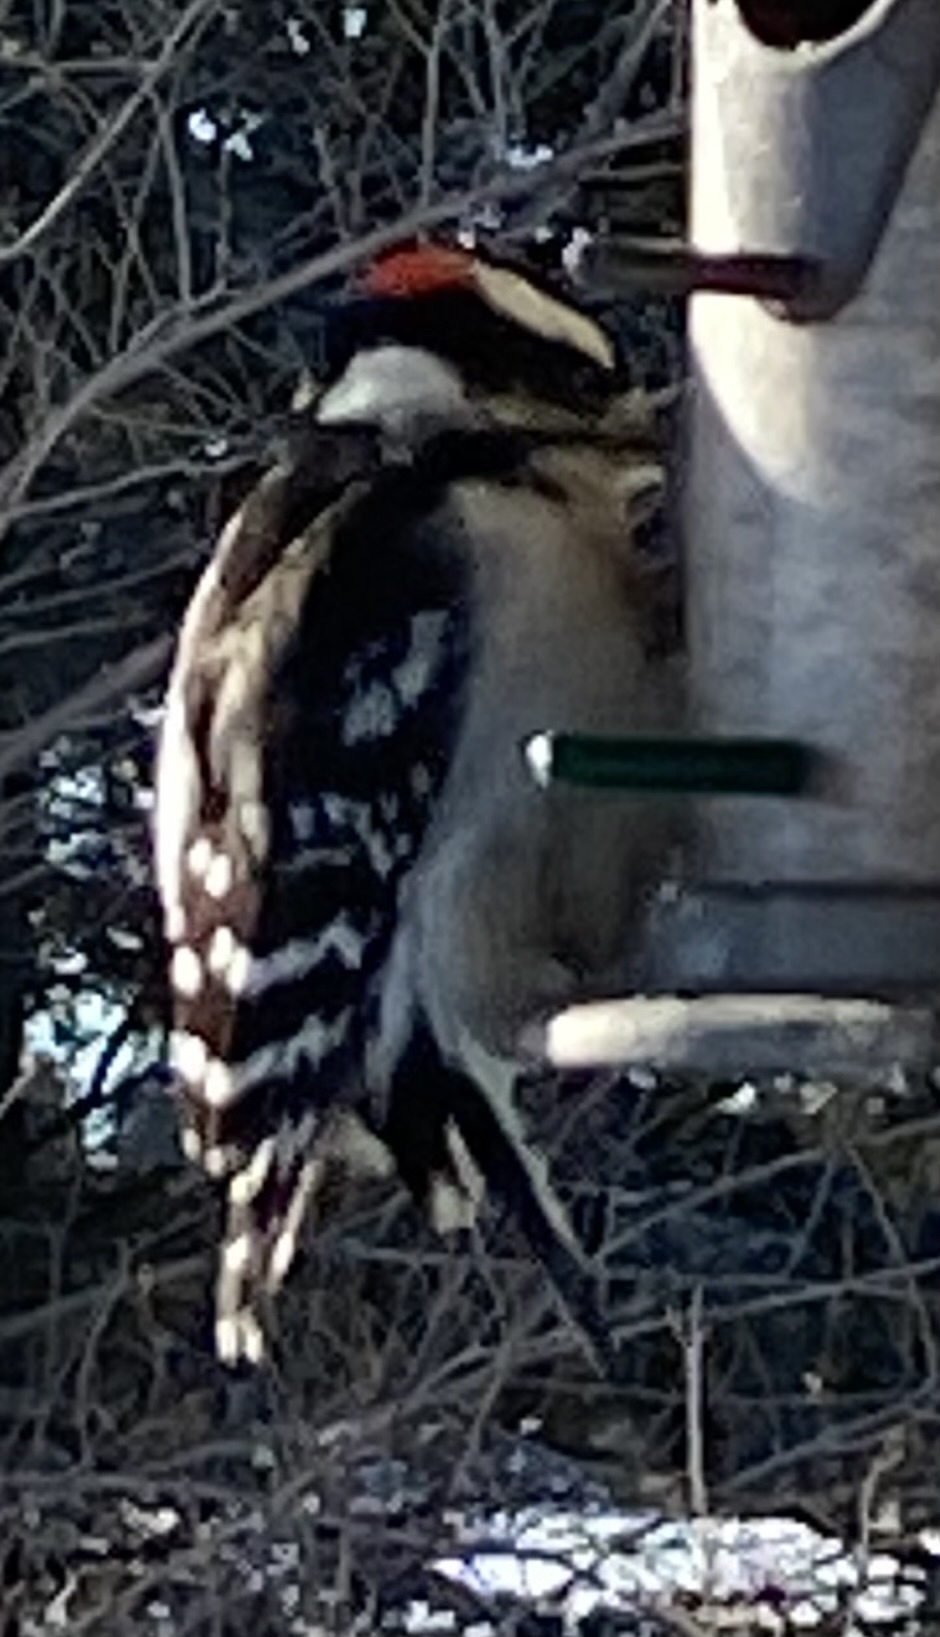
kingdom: Animalia
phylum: Chordata
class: Aves
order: Piciformes
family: Picidae
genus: Dryobates
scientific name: Dryobates pubescens
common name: Downy woodpecker
